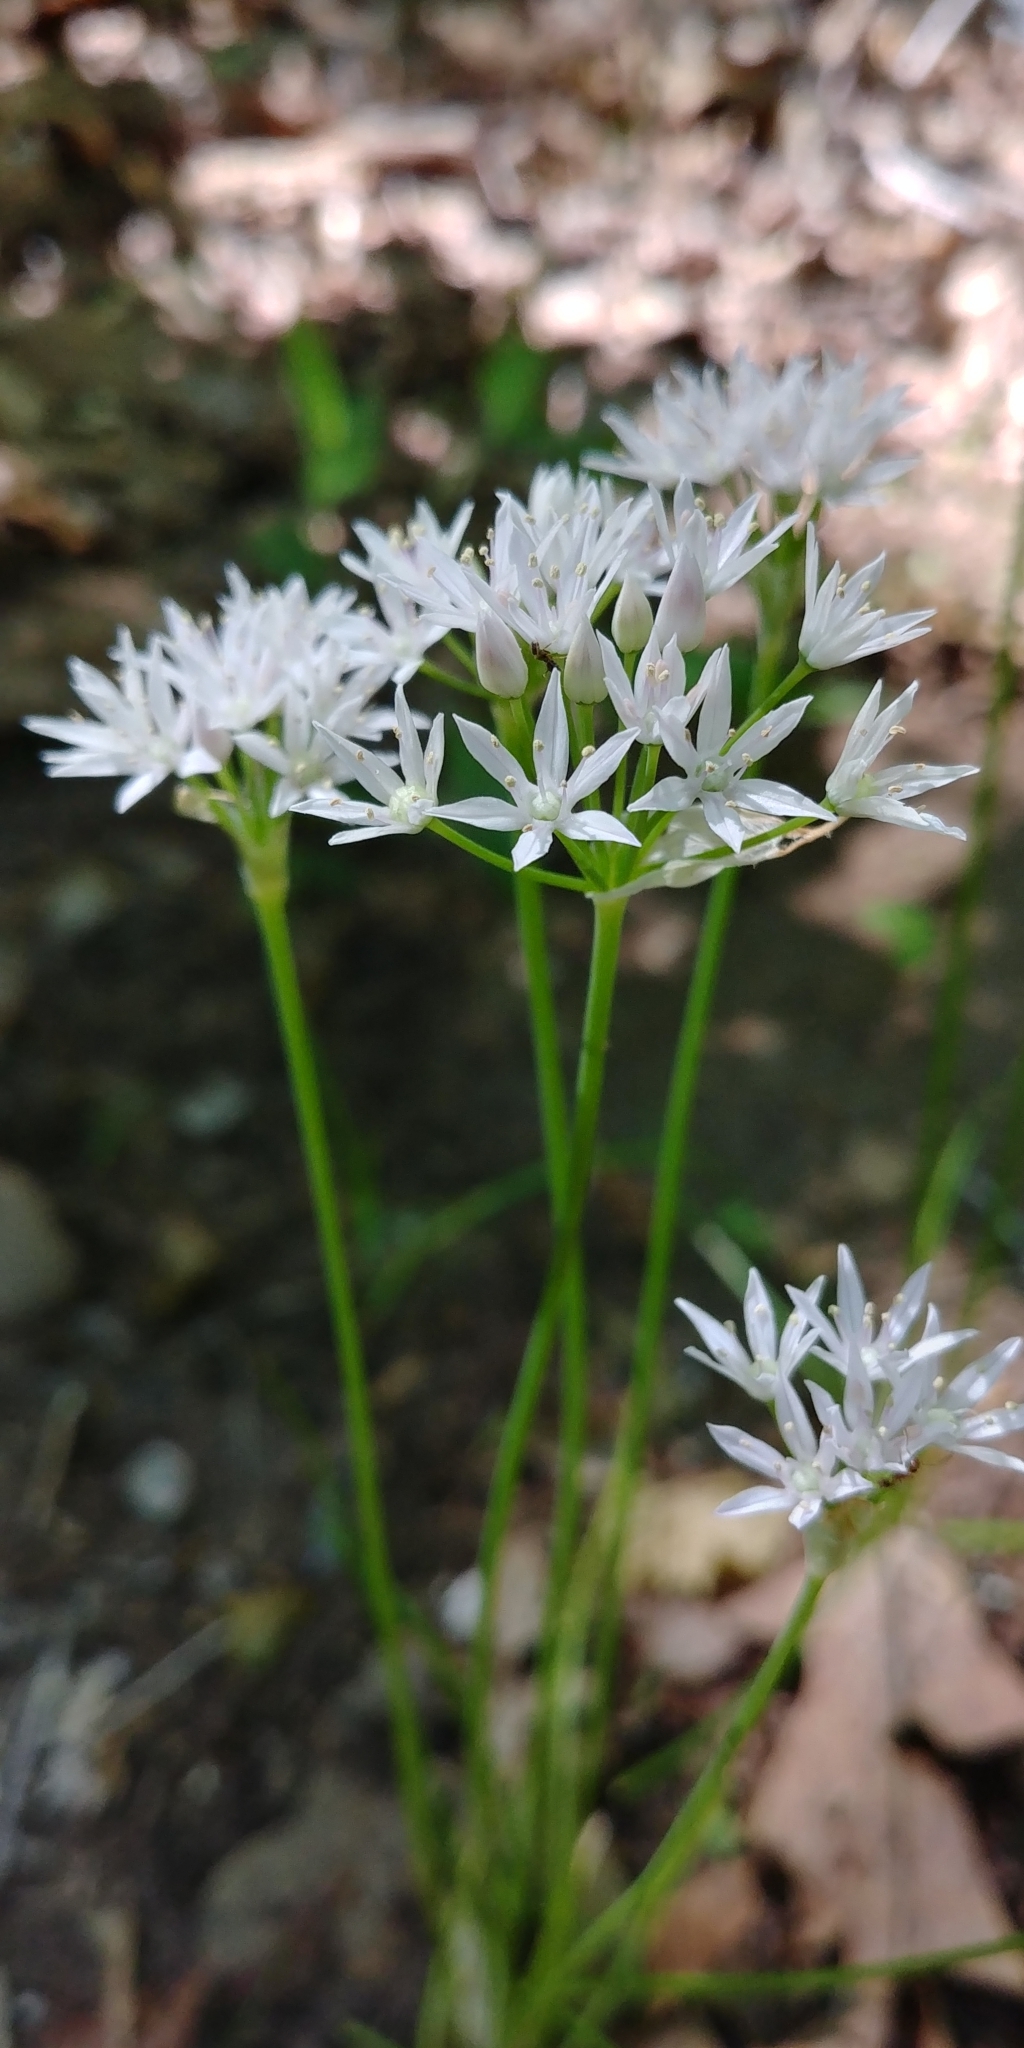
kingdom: Plantae
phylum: Tracheophyta
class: Liliopsida
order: Asparagales
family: Amaryllidaceae
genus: Allium
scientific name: Allium canadense
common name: Meadow garlic
